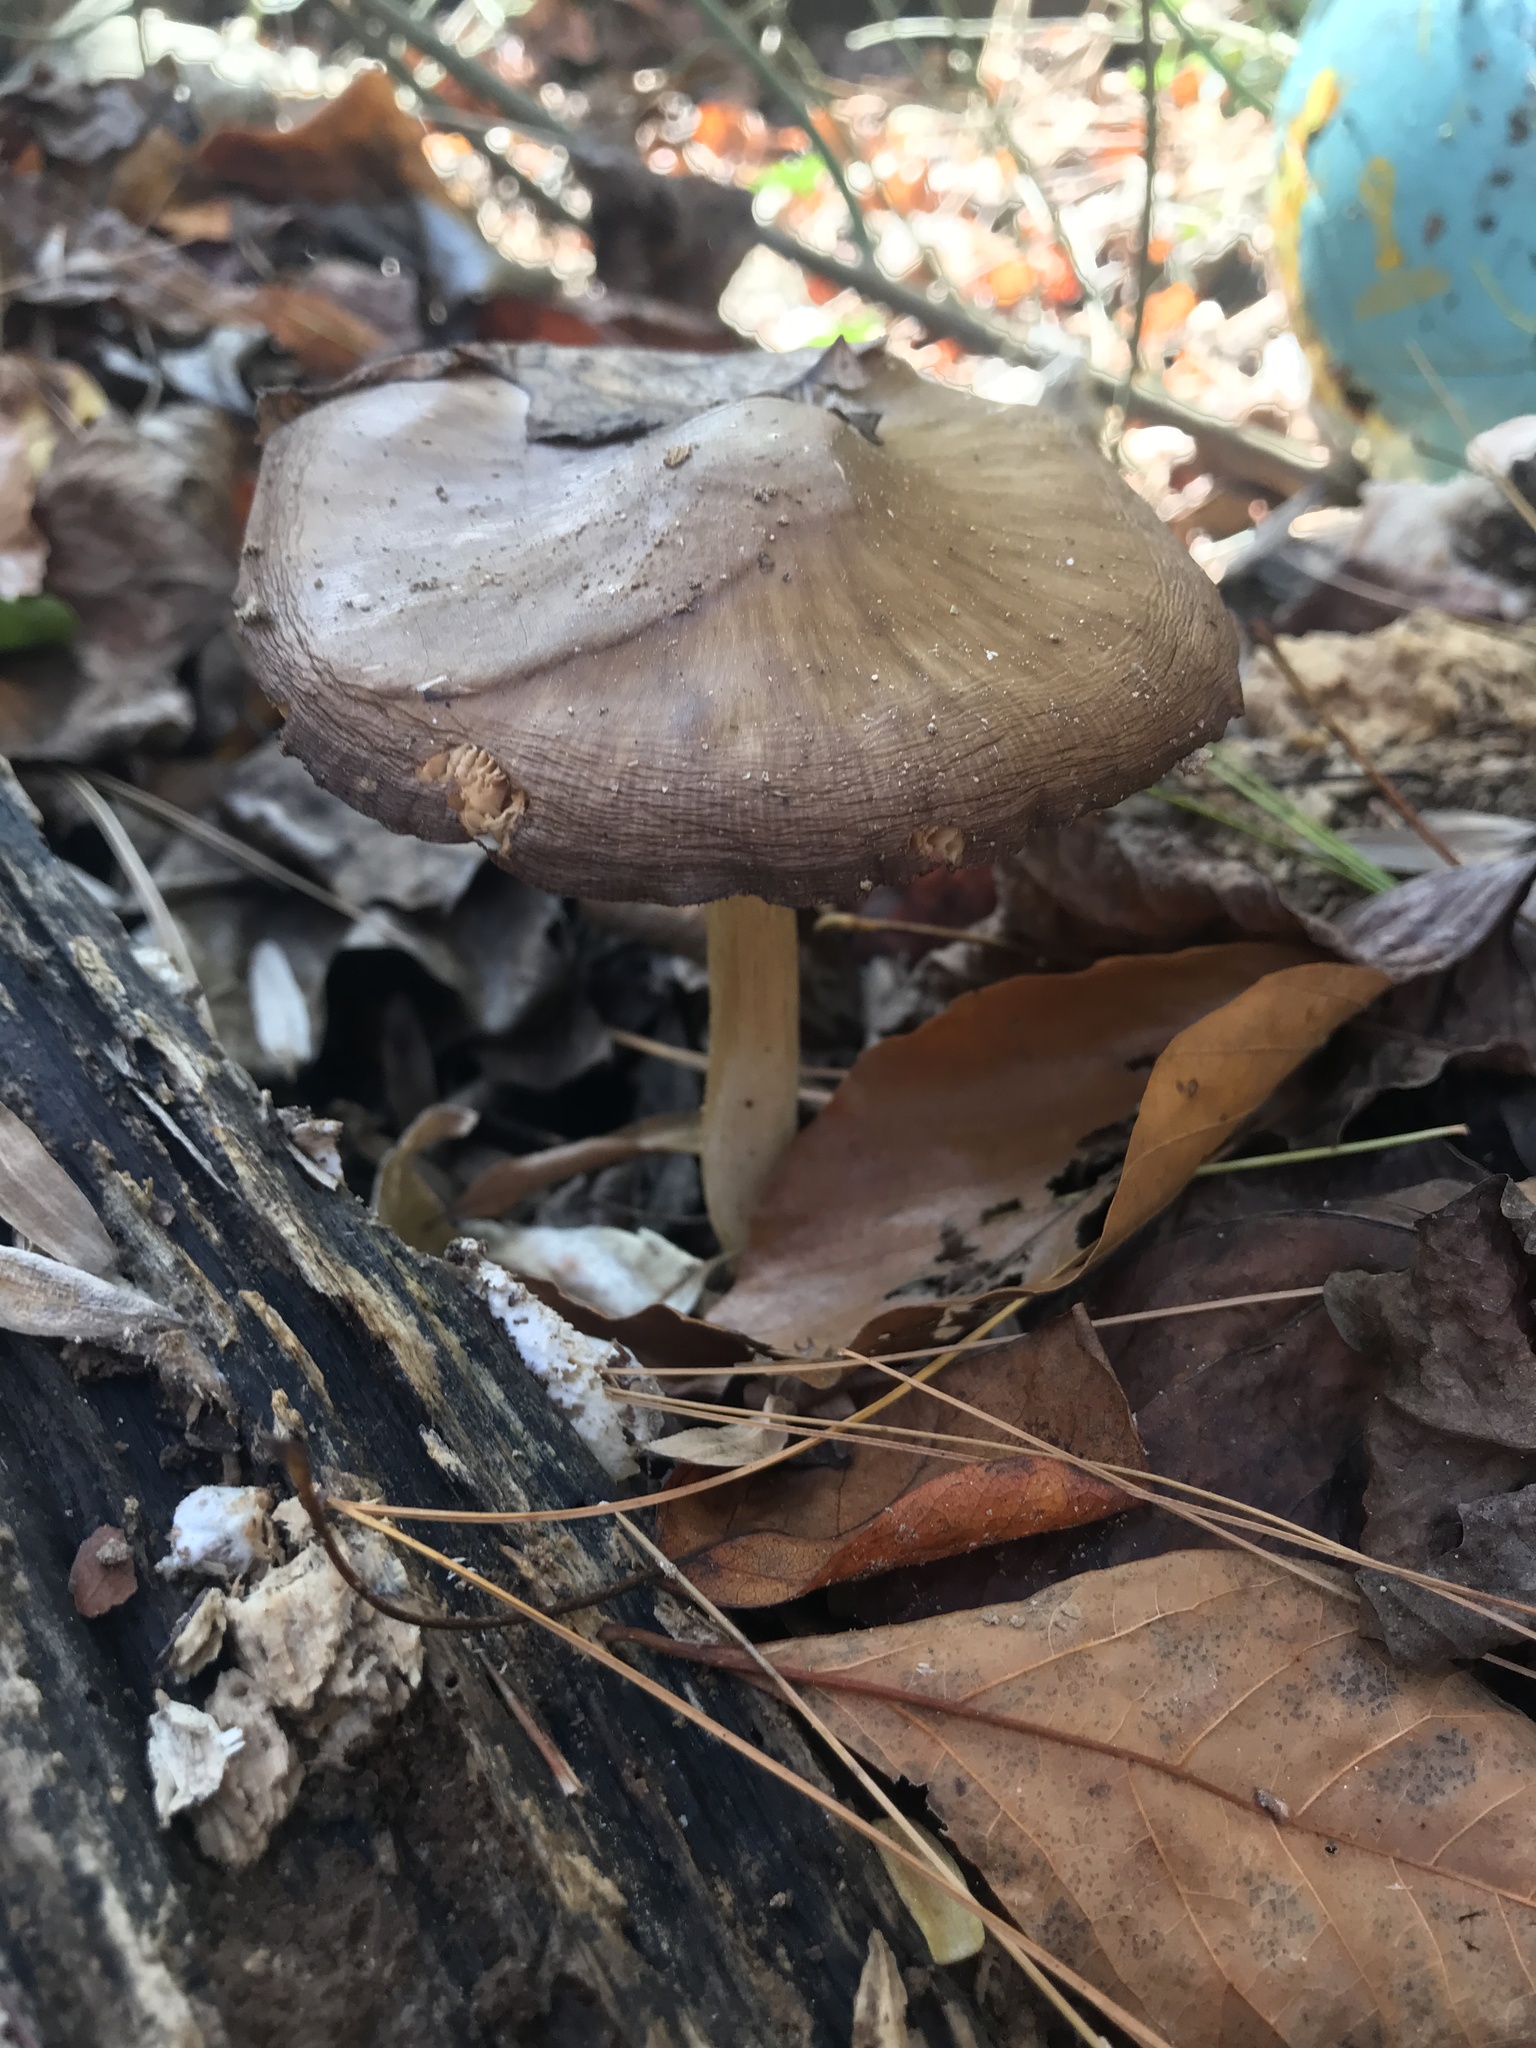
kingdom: Fungi
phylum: Basidiomycota
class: Agaricomycetes
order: Agaricales
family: Pluteaceae
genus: Pluteus
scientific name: Pluteus cervinus
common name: Deer shield
